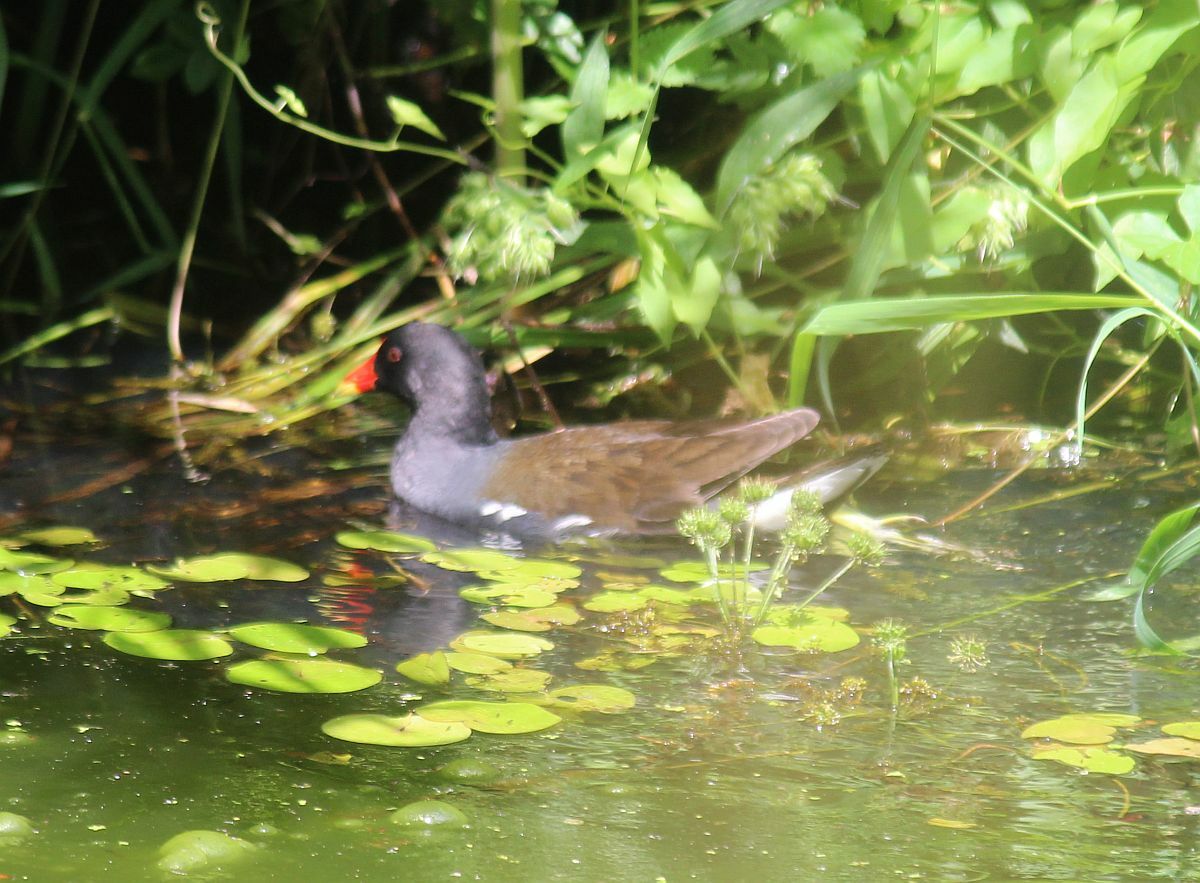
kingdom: Animalia
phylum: Chordata
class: Aves
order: Gruiformes
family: Rallidae
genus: Gallinula
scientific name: Gallinula chloropus
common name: Common moorhen
